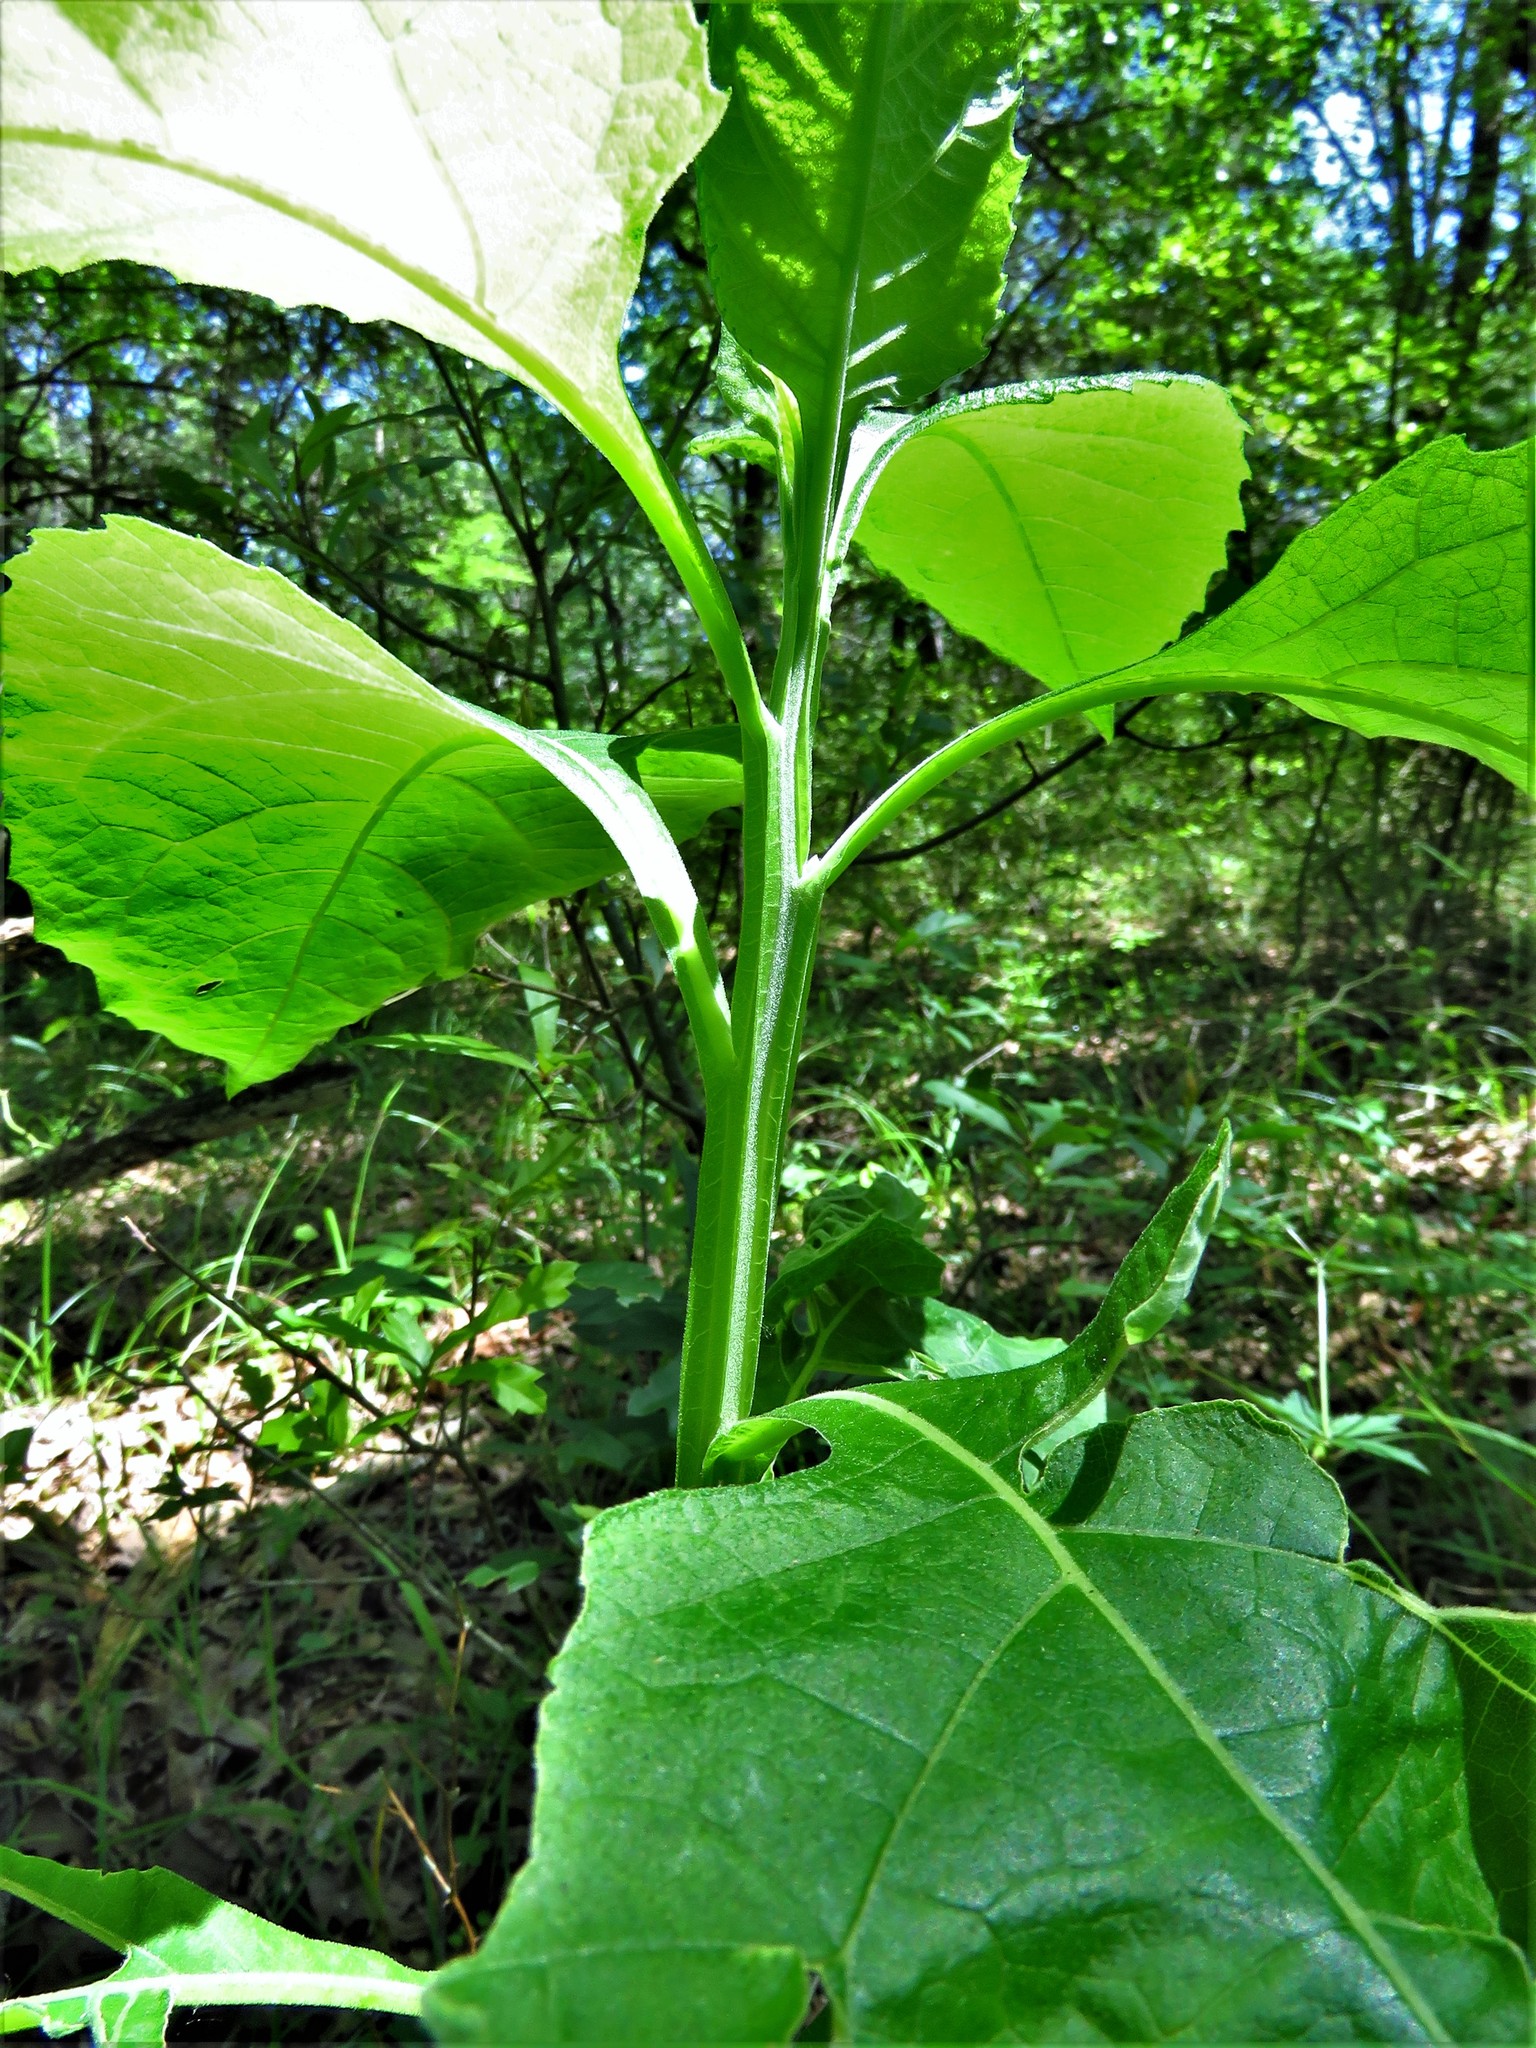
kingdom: Plantae
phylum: Tracheophyta
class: Magnoliopsida
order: Asterales
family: Asteraceae
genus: Verbesina
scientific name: Verbesina virginica
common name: Frostweed
